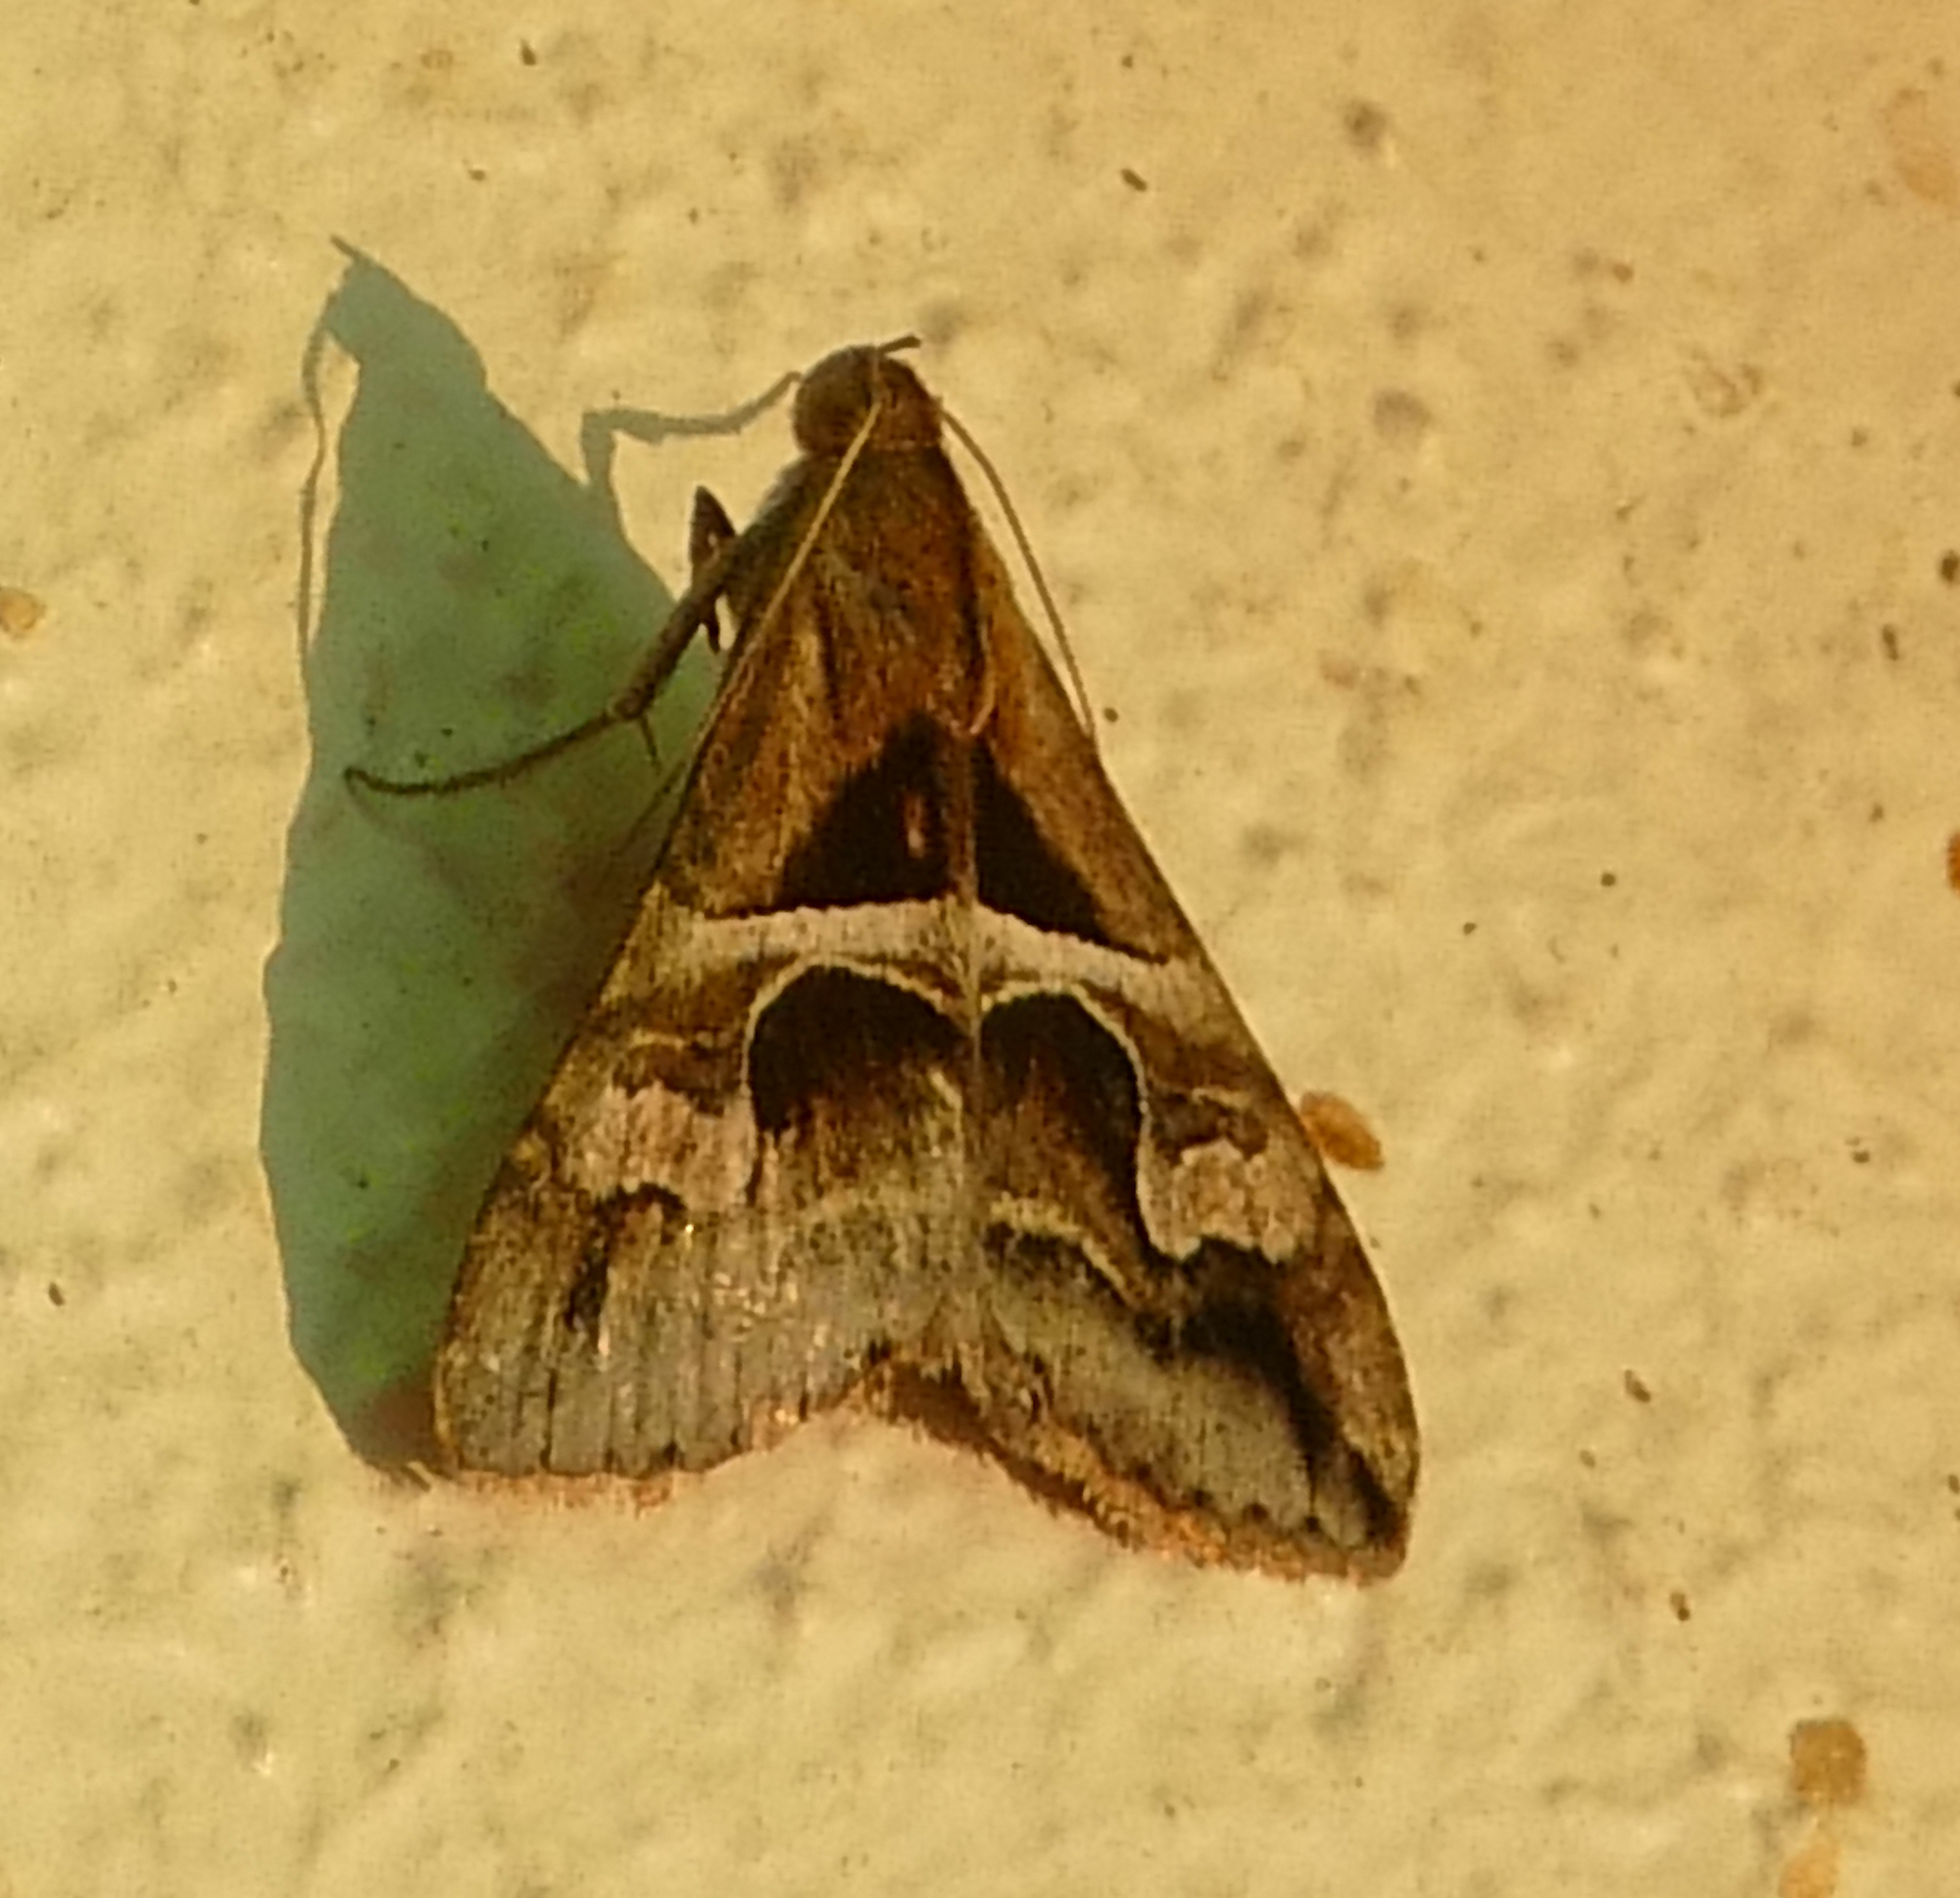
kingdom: Animalia
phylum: Arthropoda
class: Insecta
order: Lepidoptera
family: Erebidae
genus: Melipotis
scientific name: Melipotis cellaris
